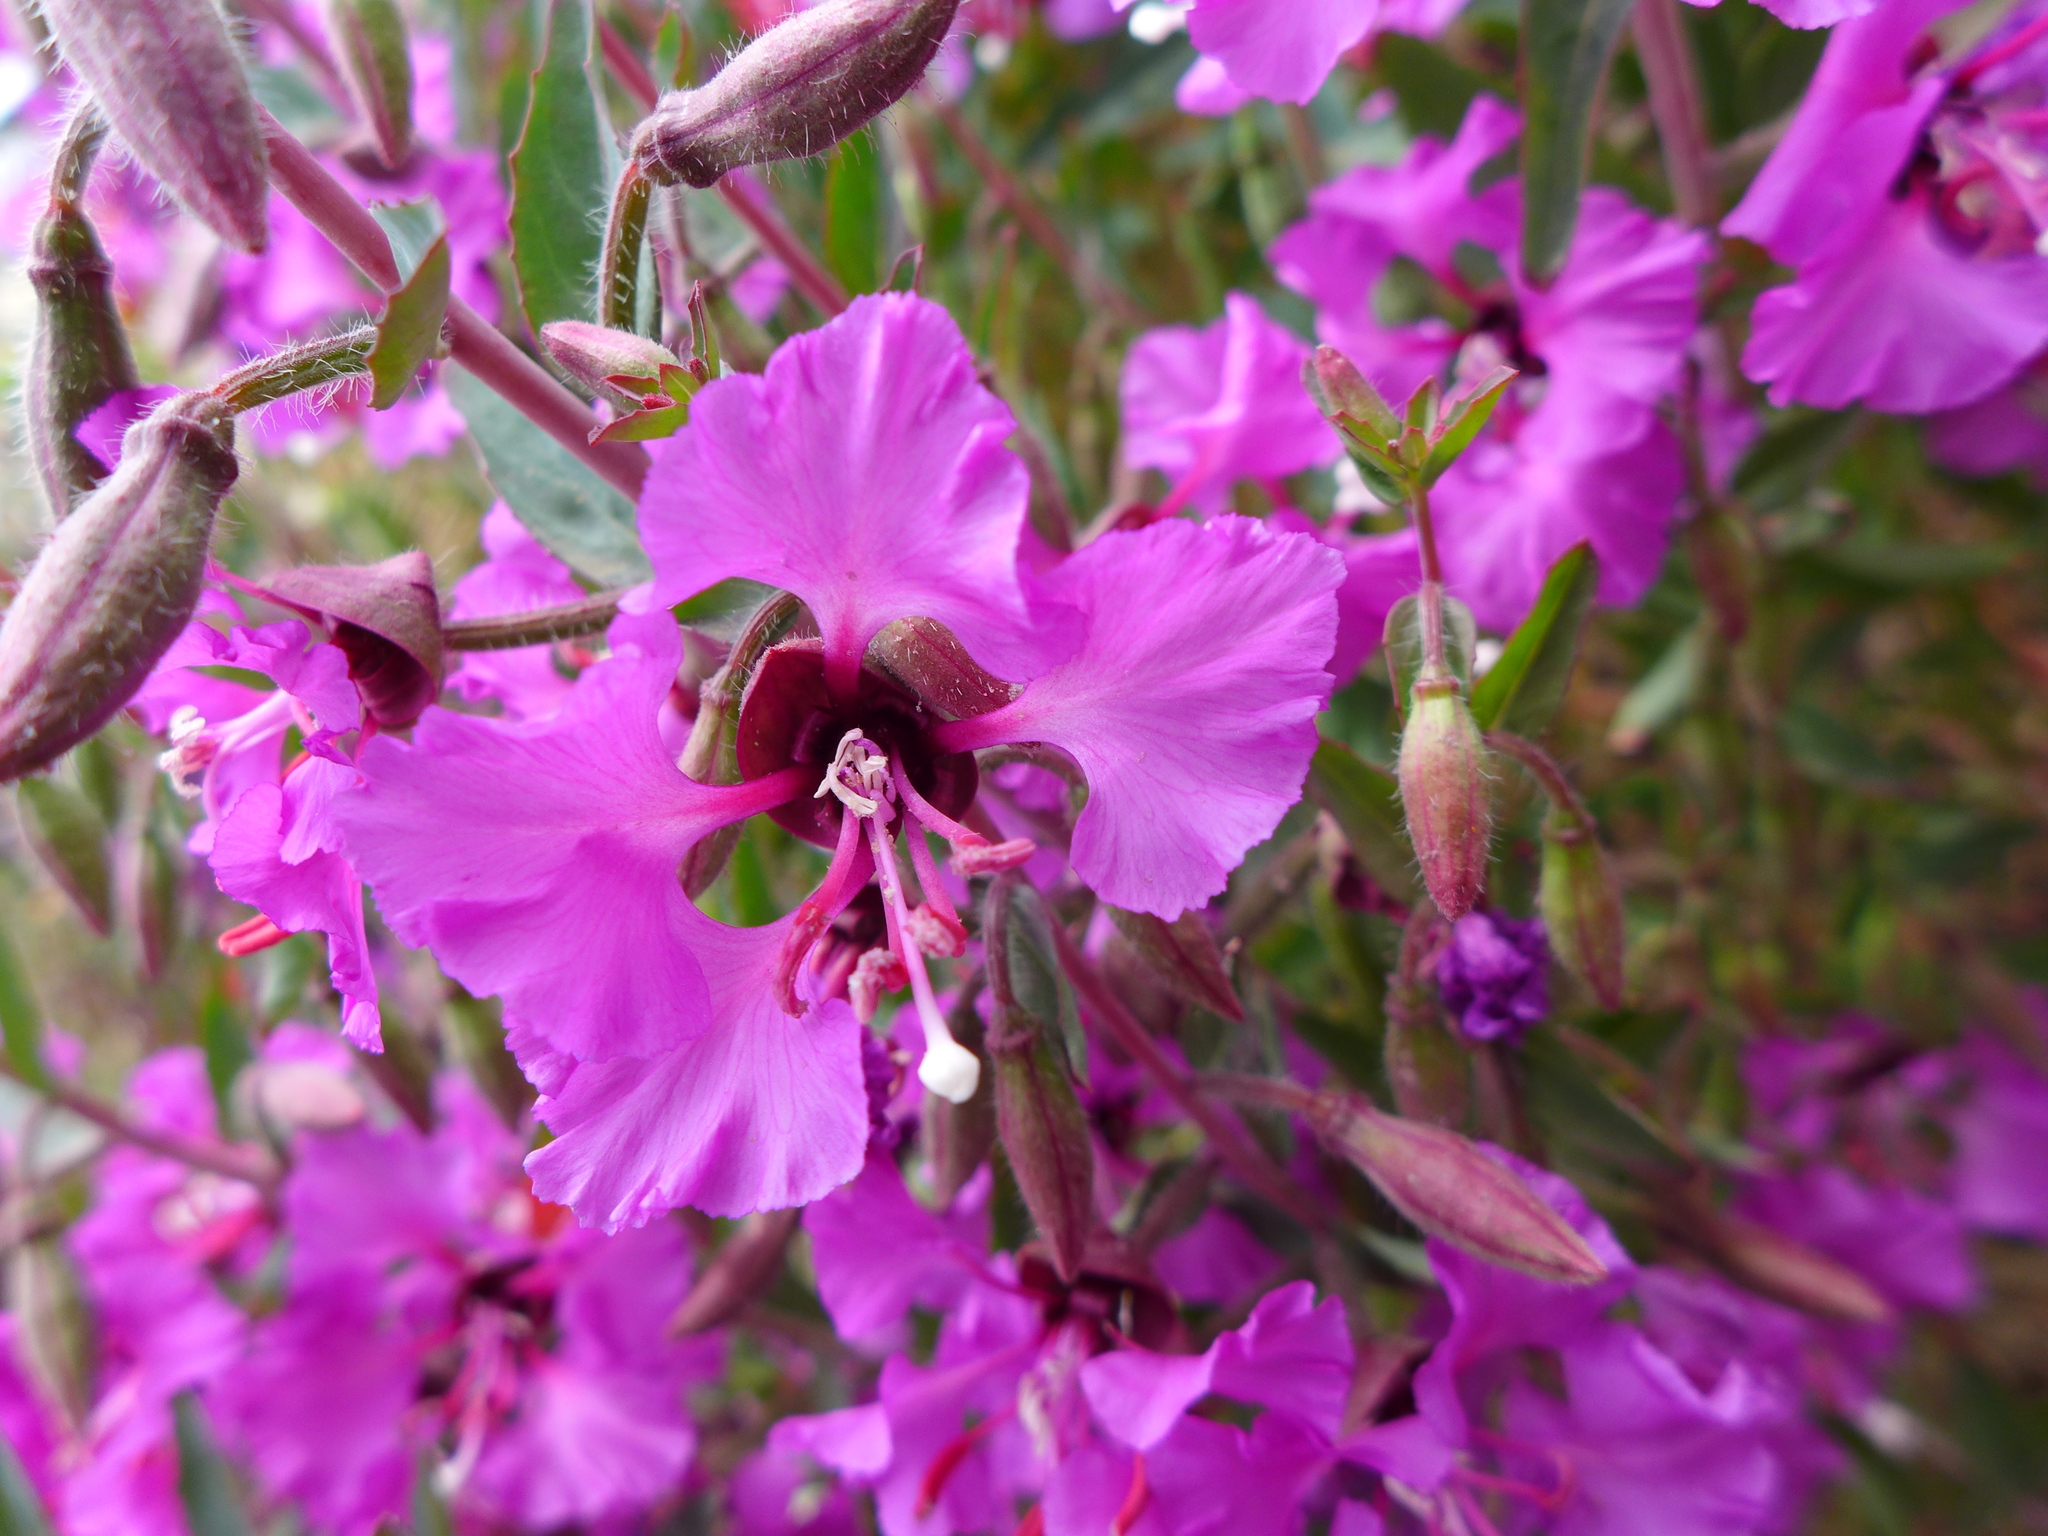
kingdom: Plantae
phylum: Tracheophyta
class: Magnoliopsida
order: Myrtales
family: Onagraceae
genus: Clarkia
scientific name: Clarkia unguiculata
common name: Clarkia
